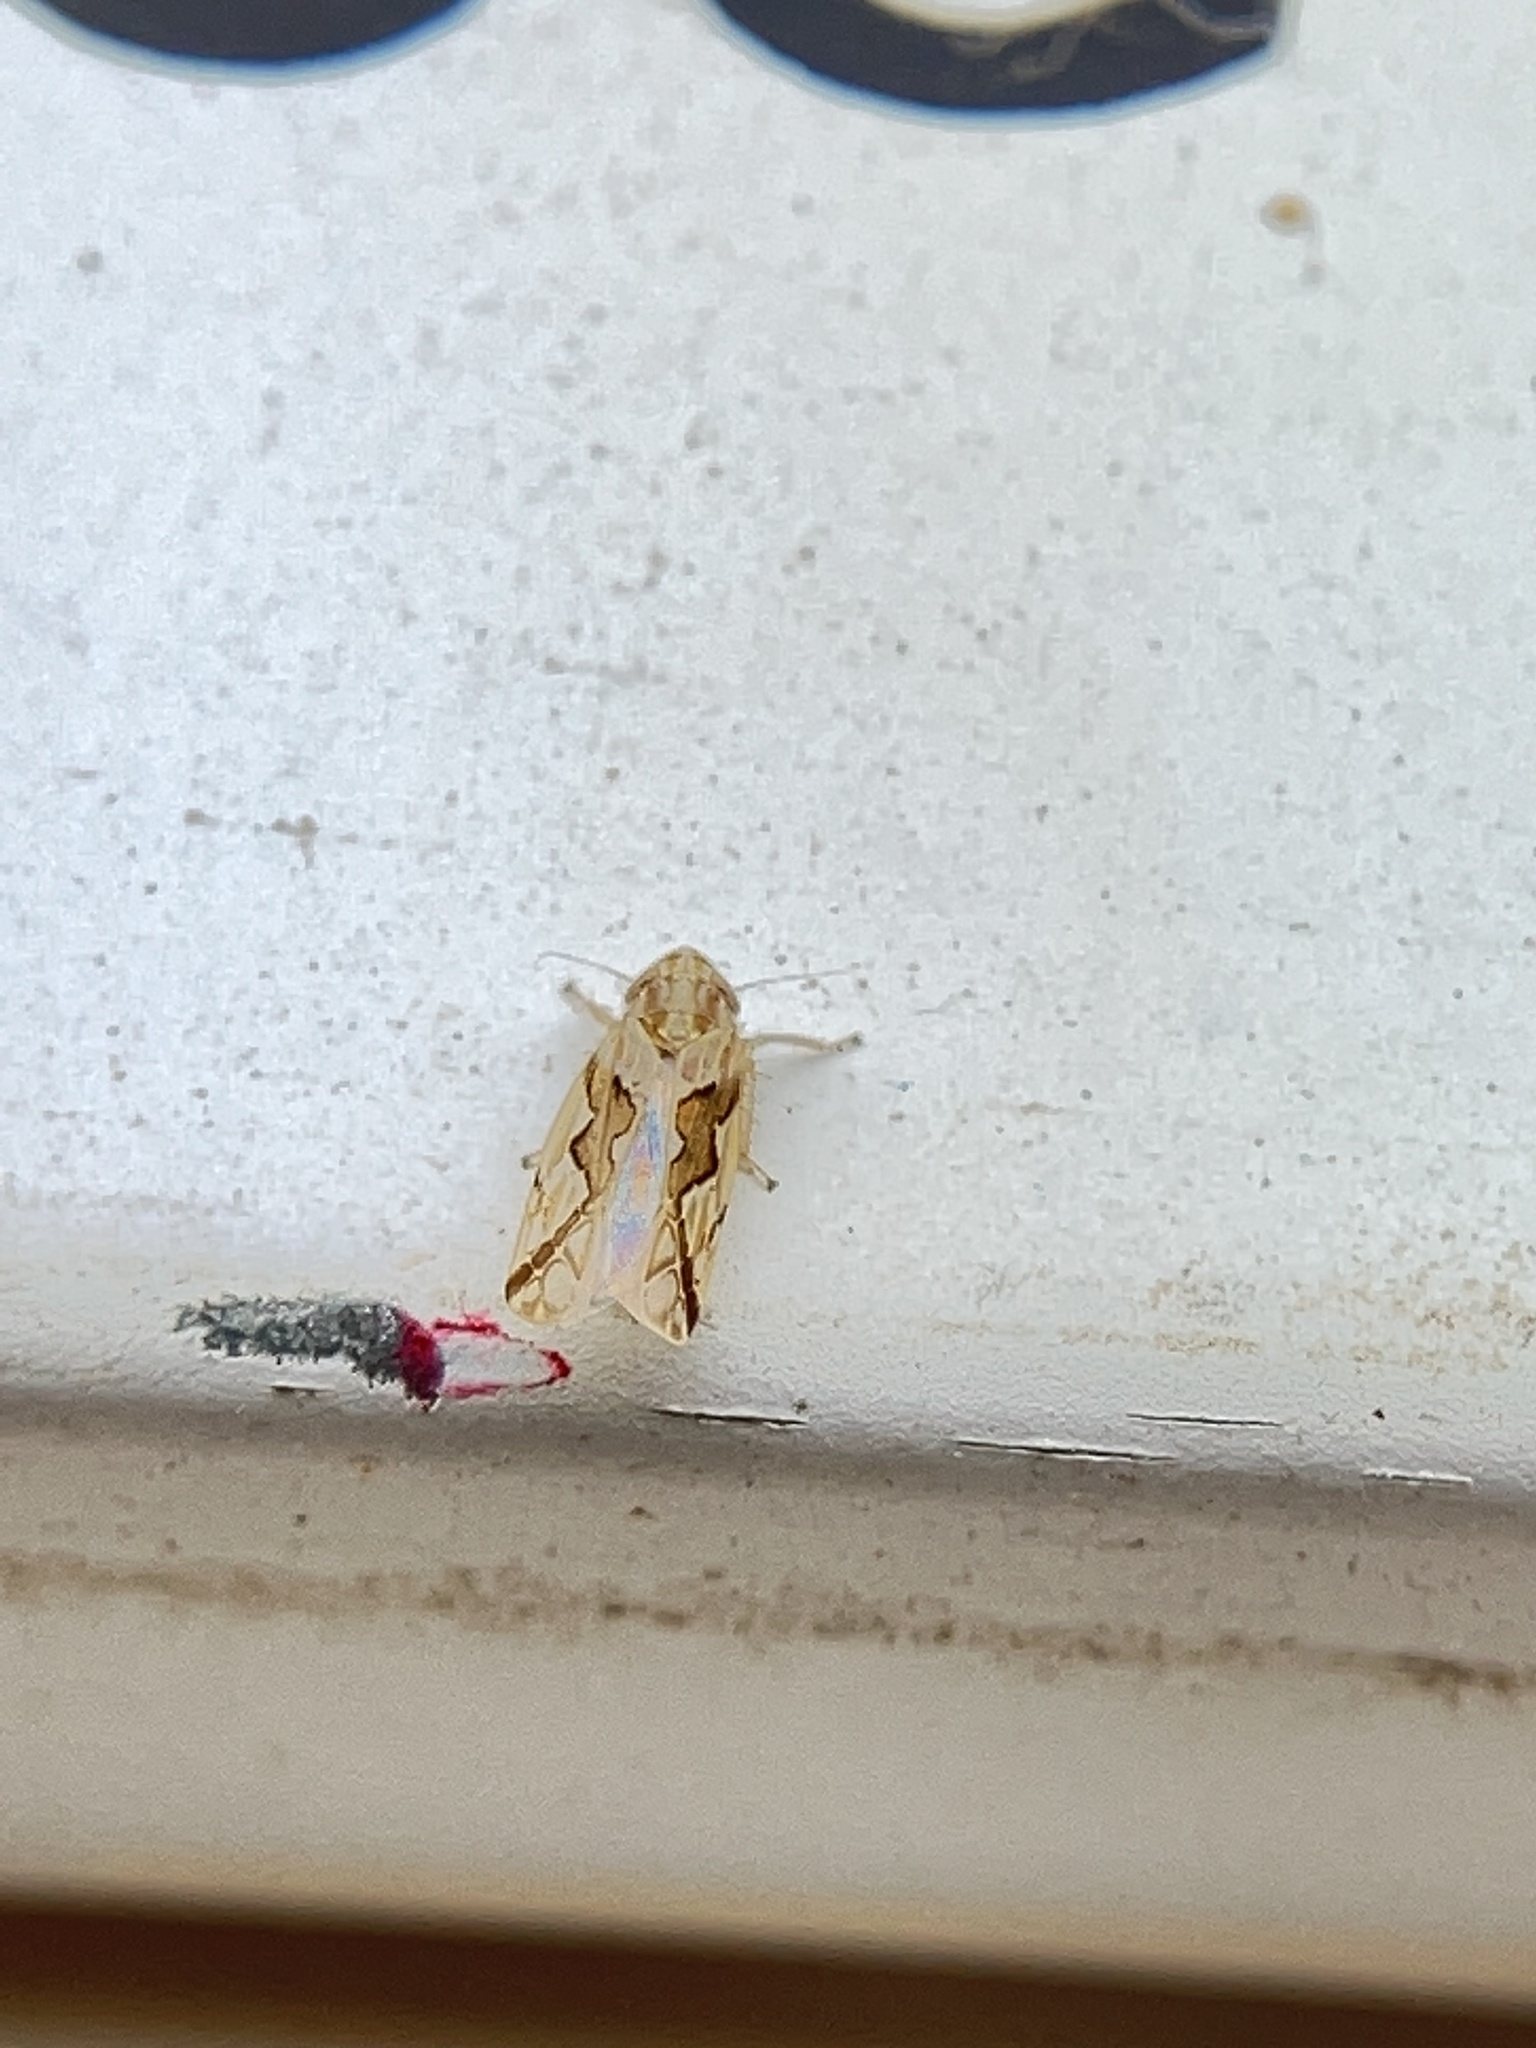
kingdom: Animalia
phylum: Arthropoda
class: Insecta
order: Hemiptera
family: Cicadellidae
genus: Maiestas
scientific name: Maiestas dorsalis
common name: Zig-zag leafhopper
